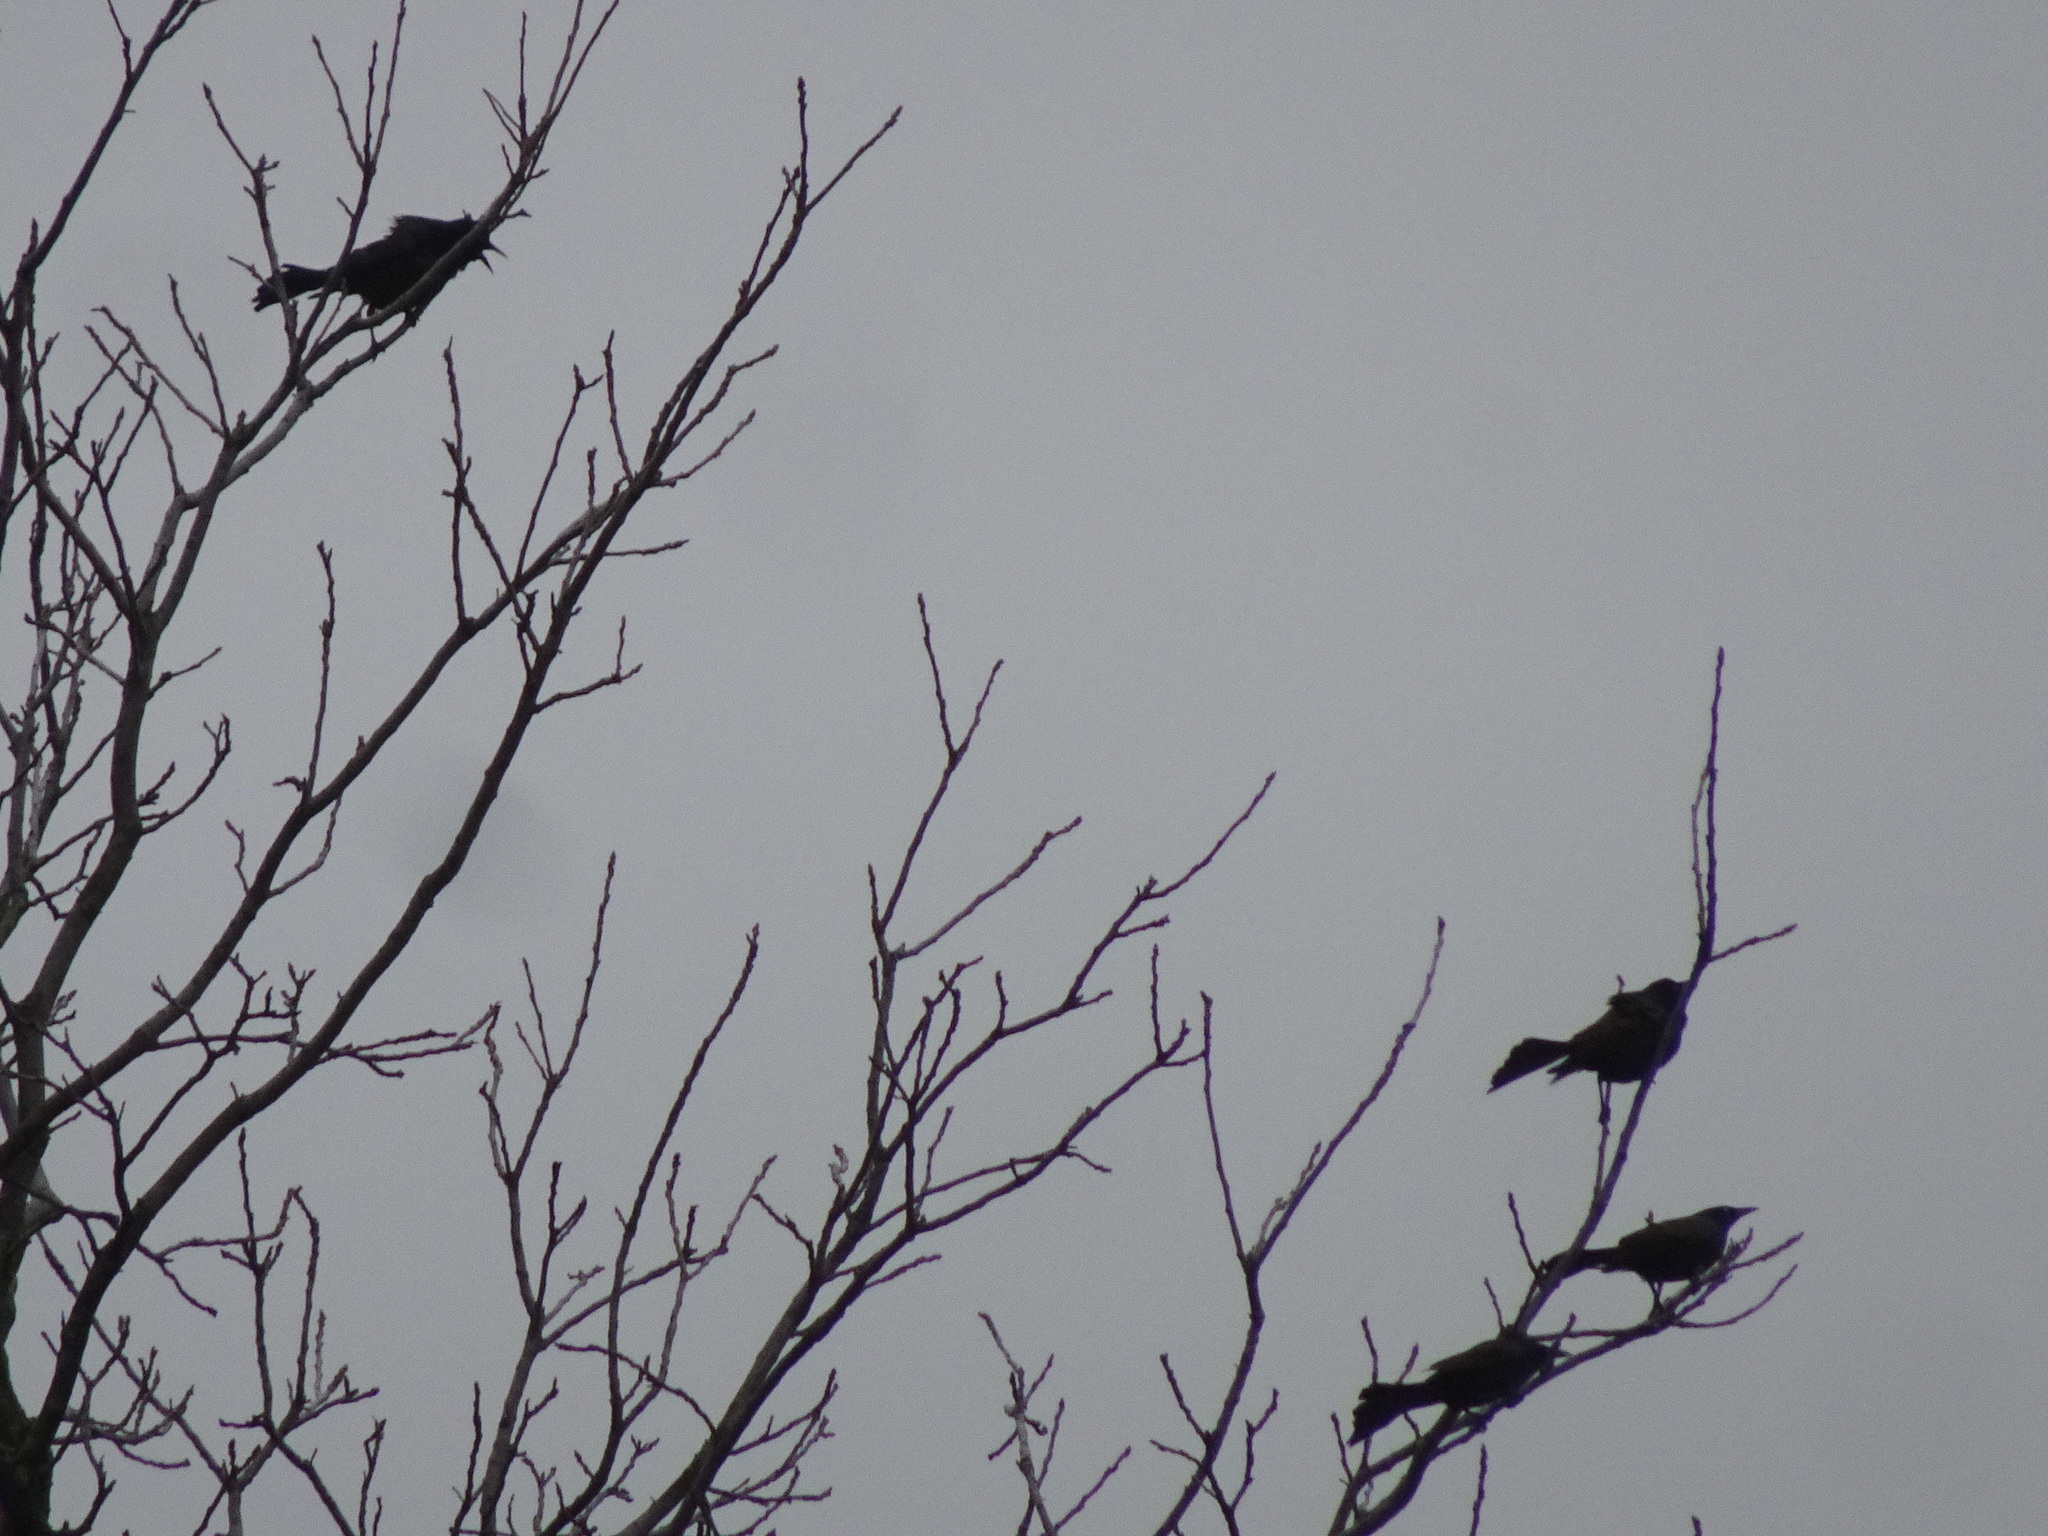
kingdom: Animalia
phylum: Chordata
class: Aves
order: Passeriformes
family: Icteridae
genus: Quiscalus
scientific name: Quiscalus quiscula
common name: Common grackle
